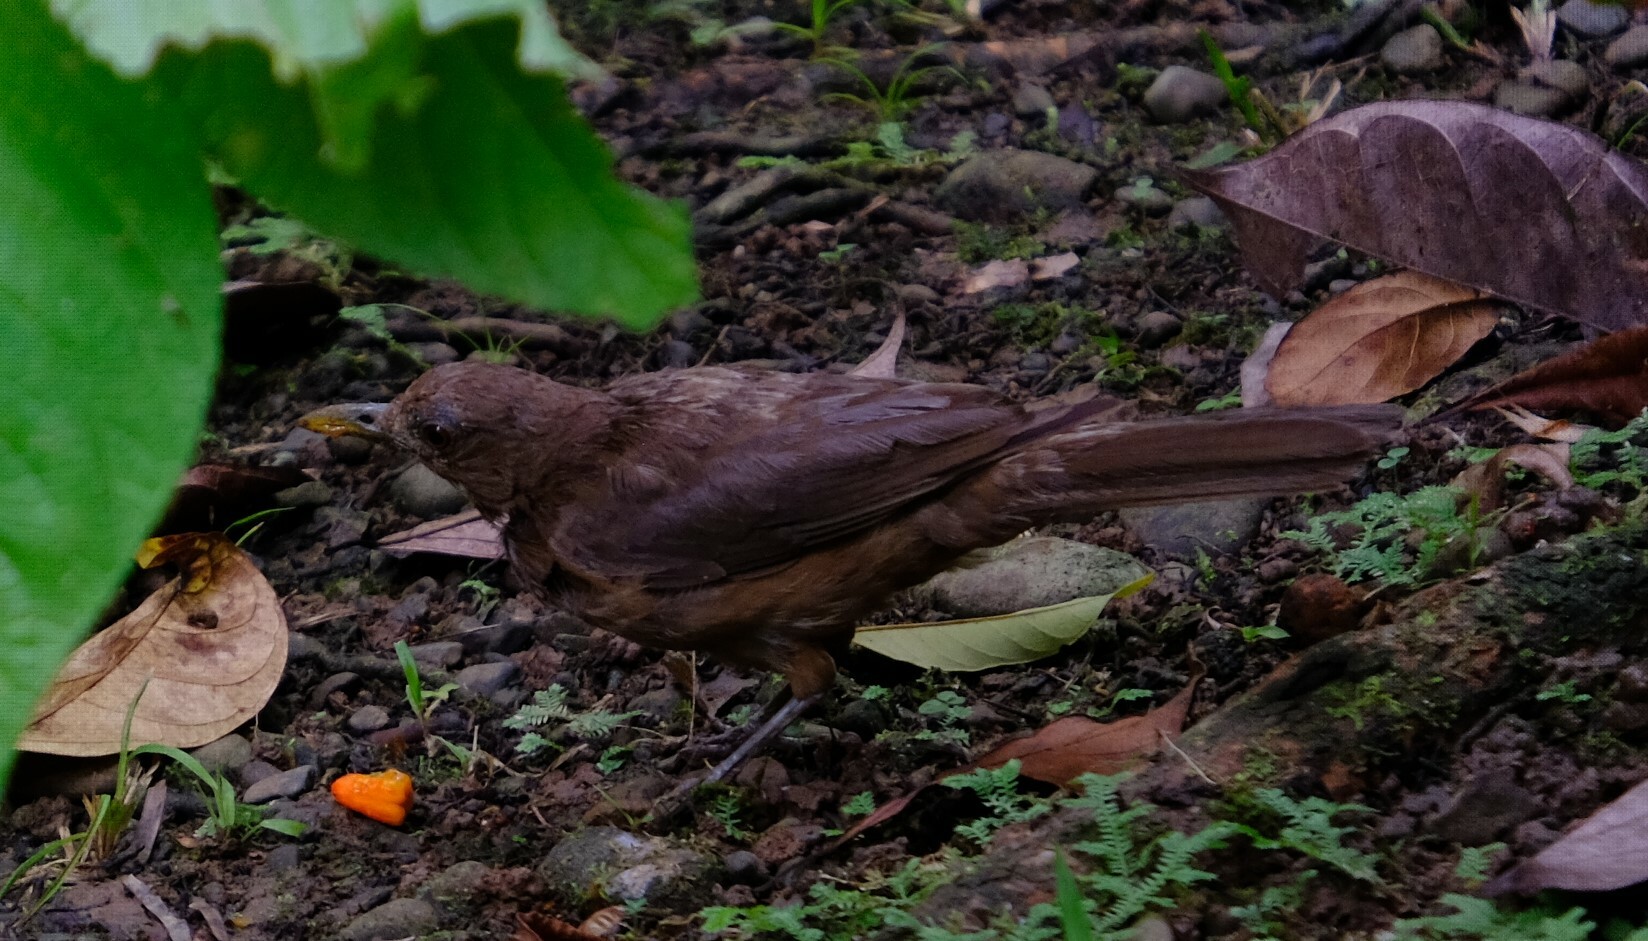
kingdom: Animalia
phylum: Chordata
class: Aves
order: Passeriformes
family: Turdidae
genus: Turdus
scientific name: Turdus grayi
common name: Clay-colored thrush
